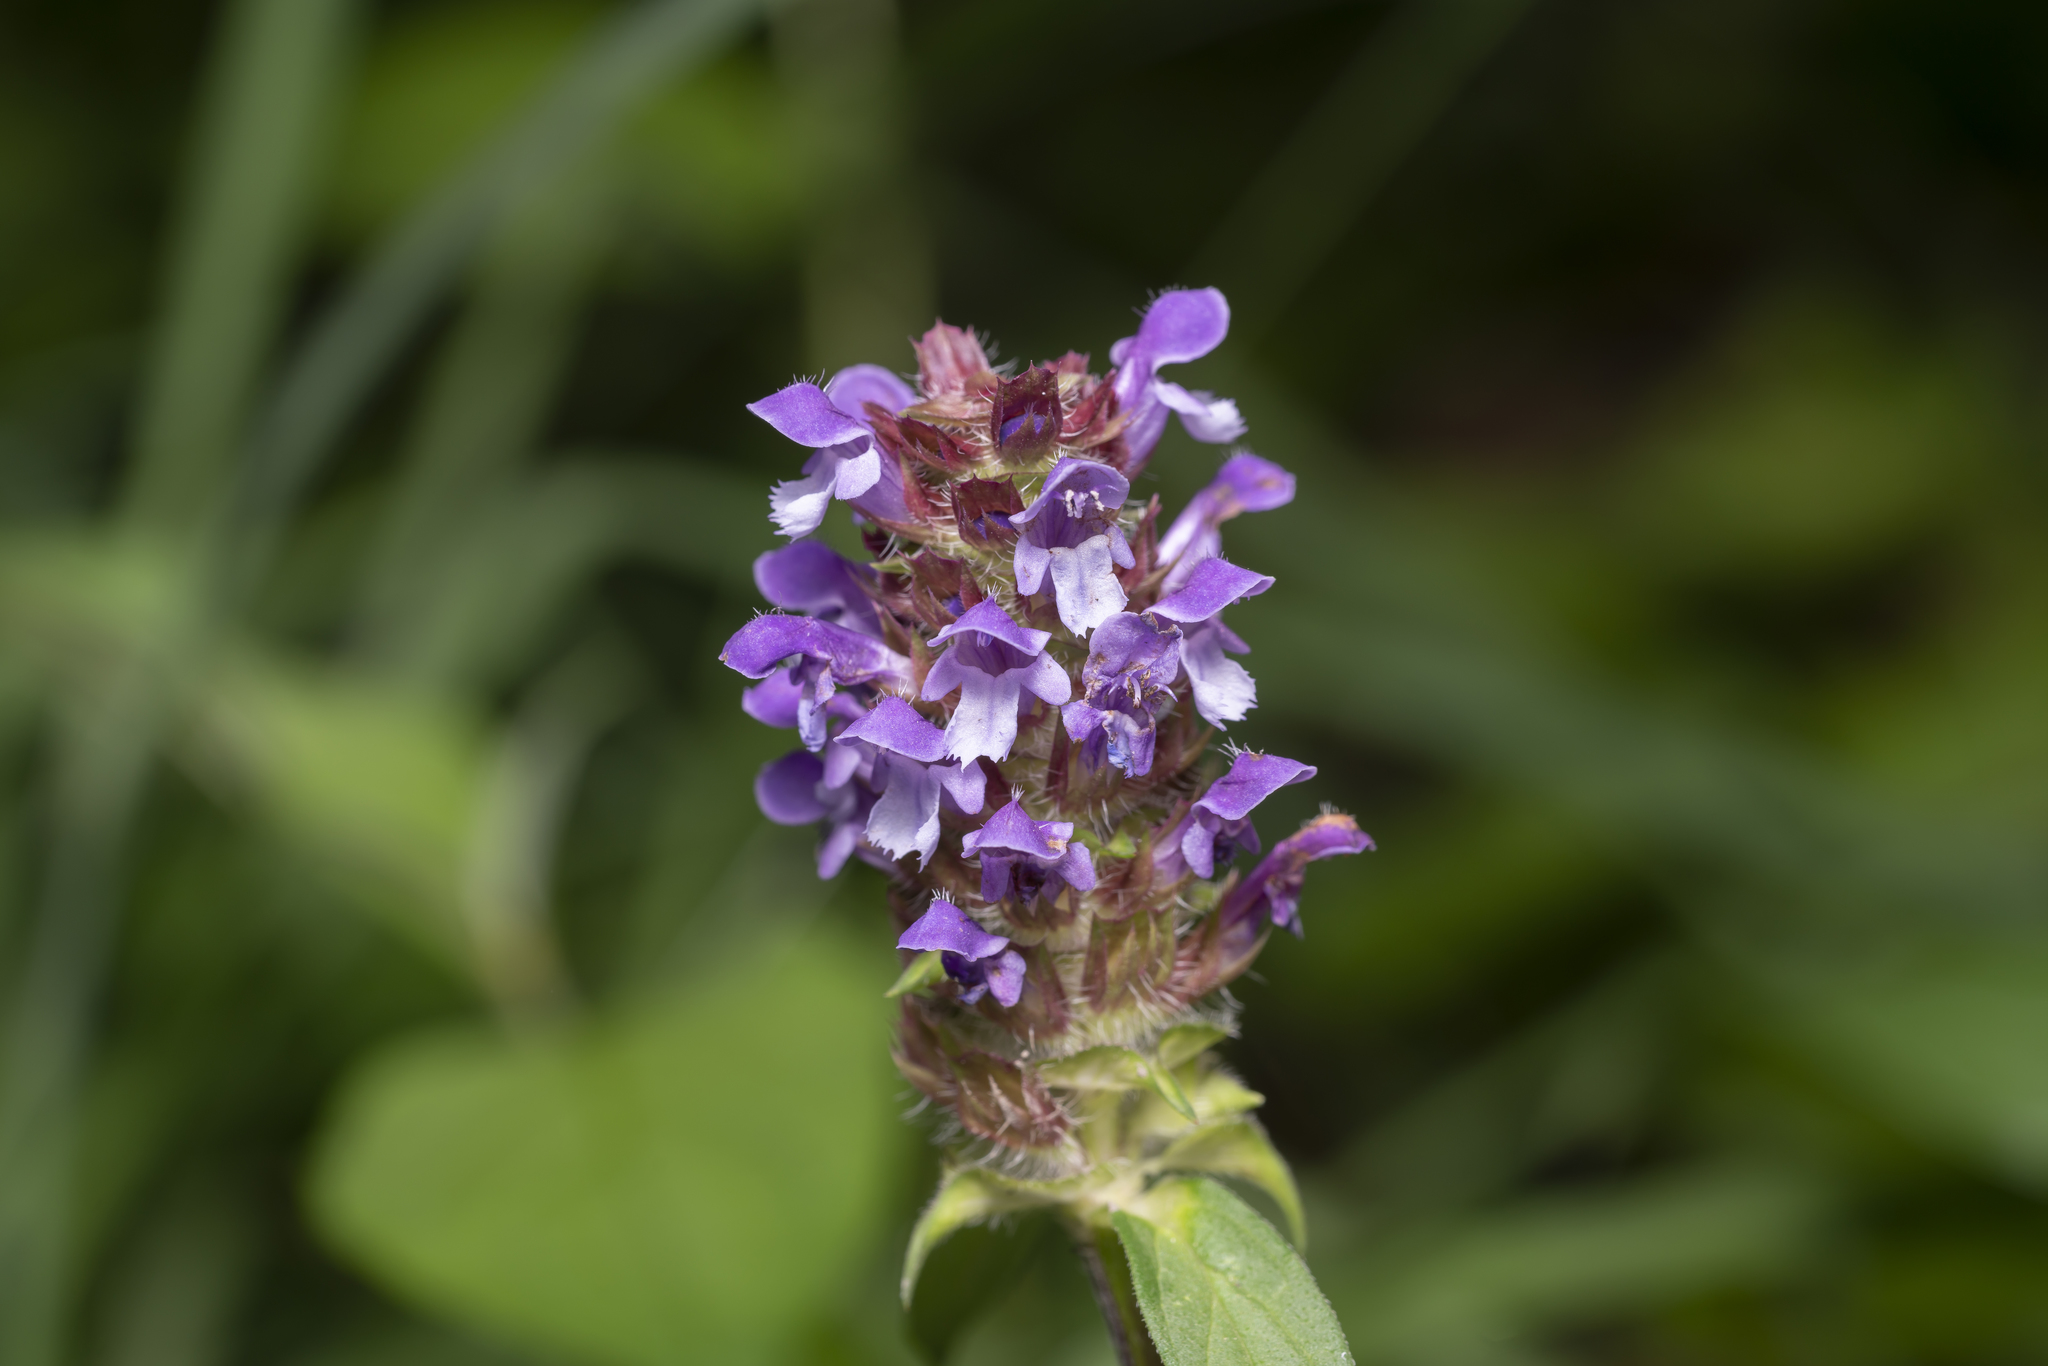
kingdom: Plantae
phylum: Tracheophyta
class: Magnoliopsida
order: Lamiales
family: Lamiaceae
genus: Prunella
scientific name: Prunella vulgaris
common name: Heal-all
